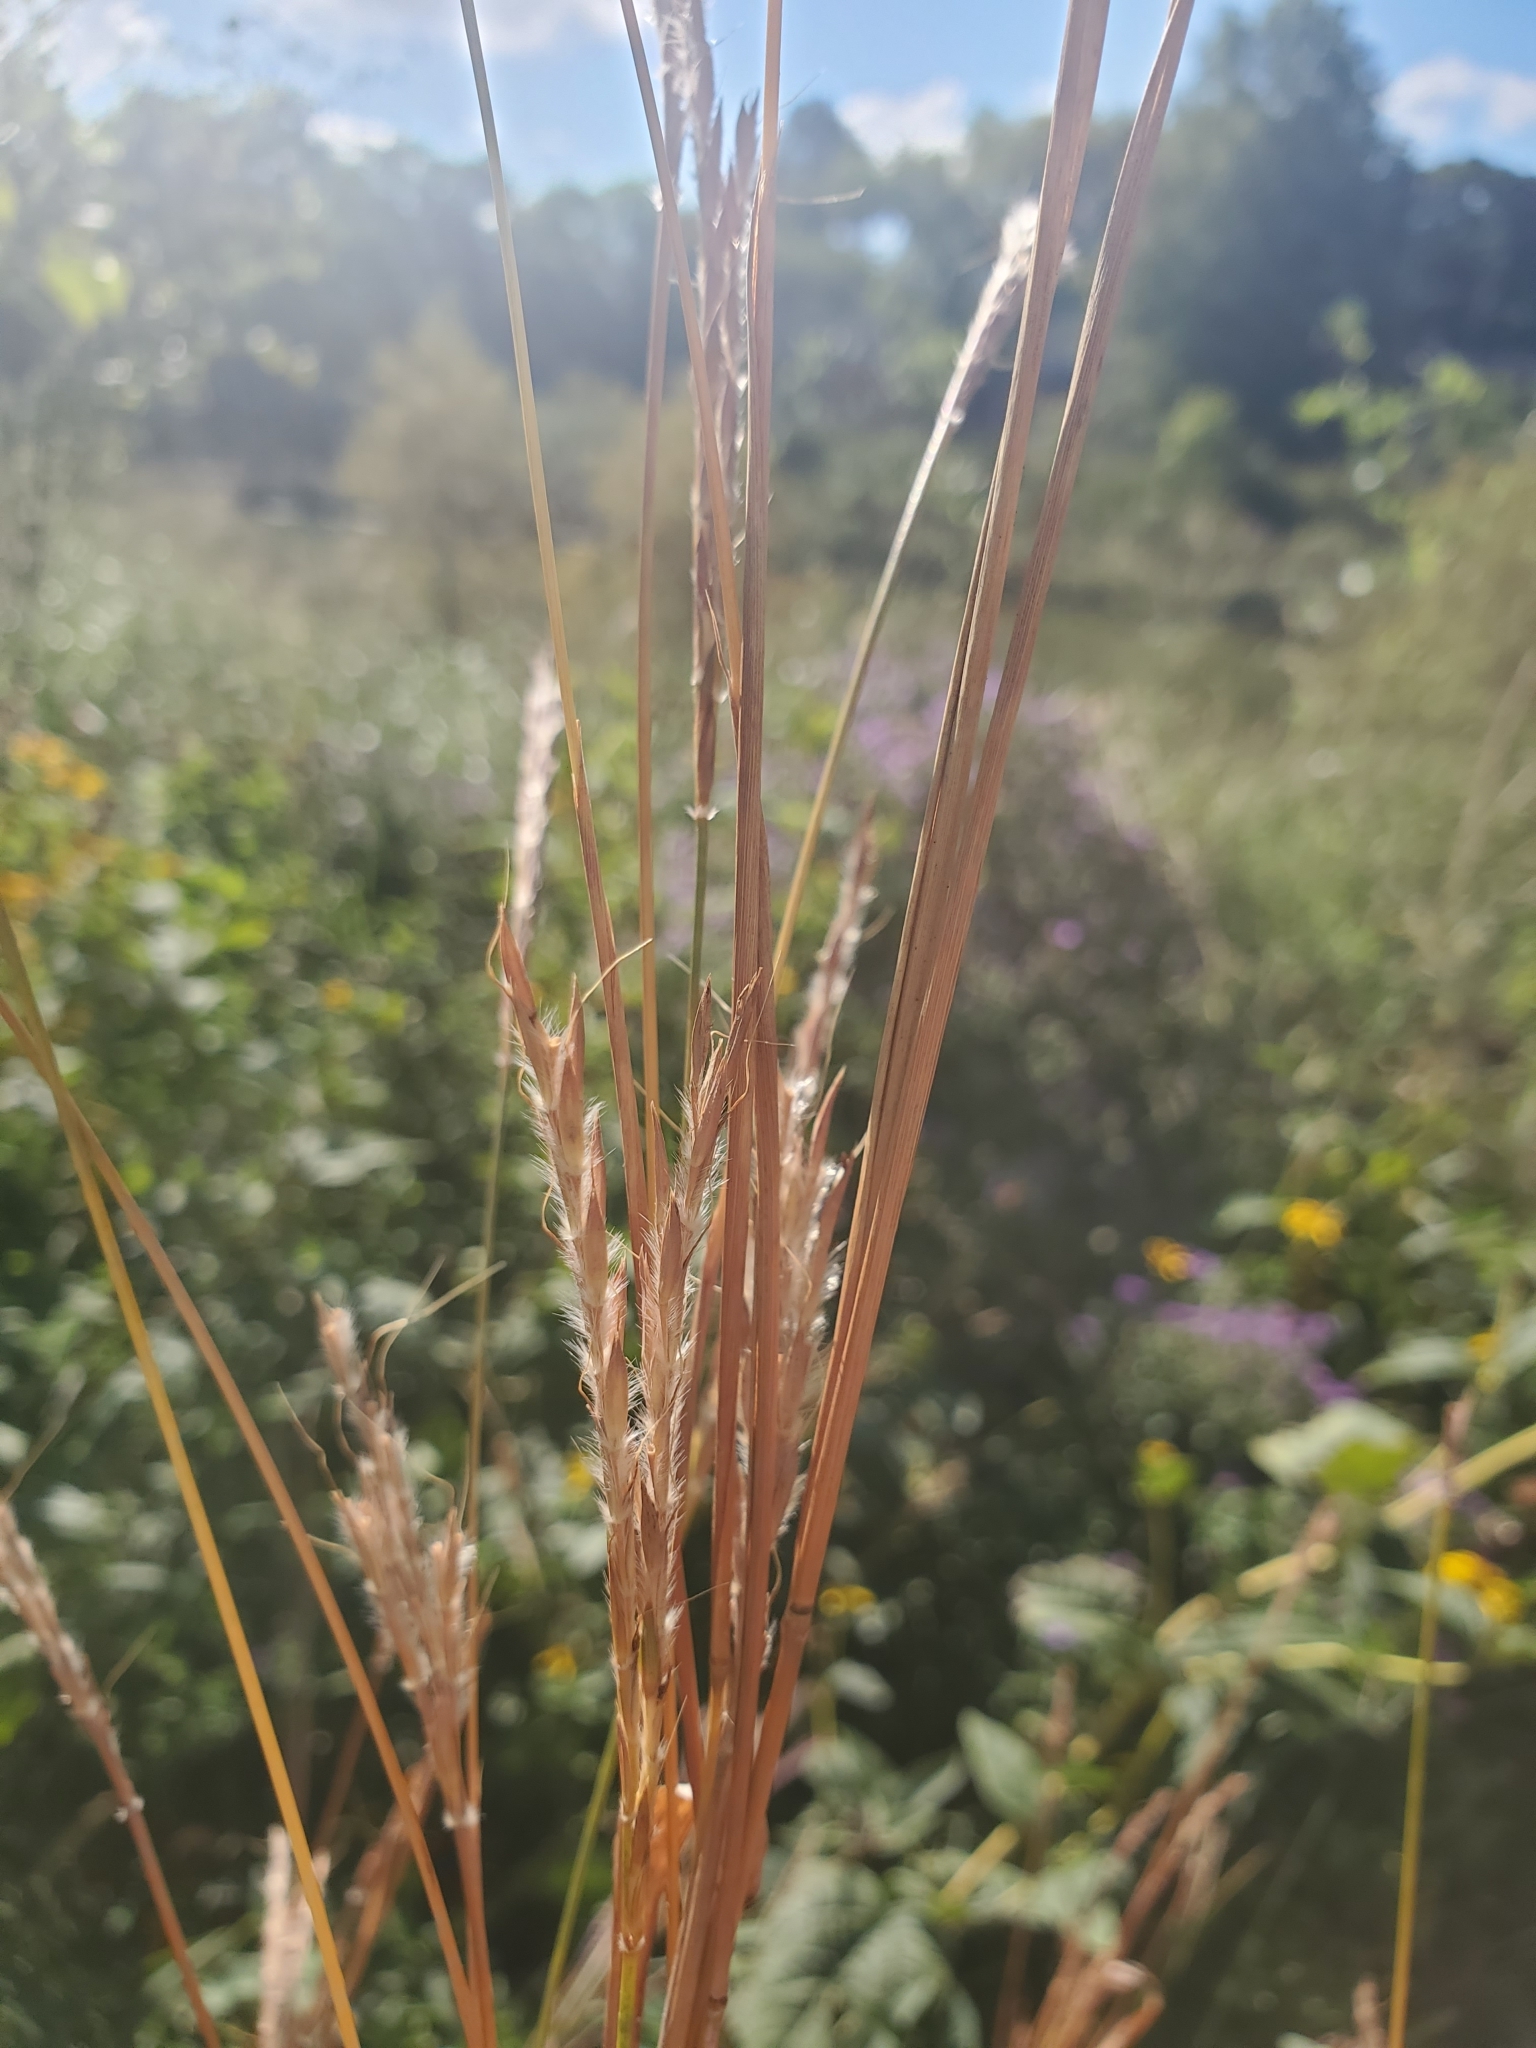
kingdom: Plantae
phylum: Tracheophyta
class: Liliopsida
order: Poales
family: Poaceae
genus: Andropogon
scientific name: Andropogon gerardi
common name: Big bluestem
